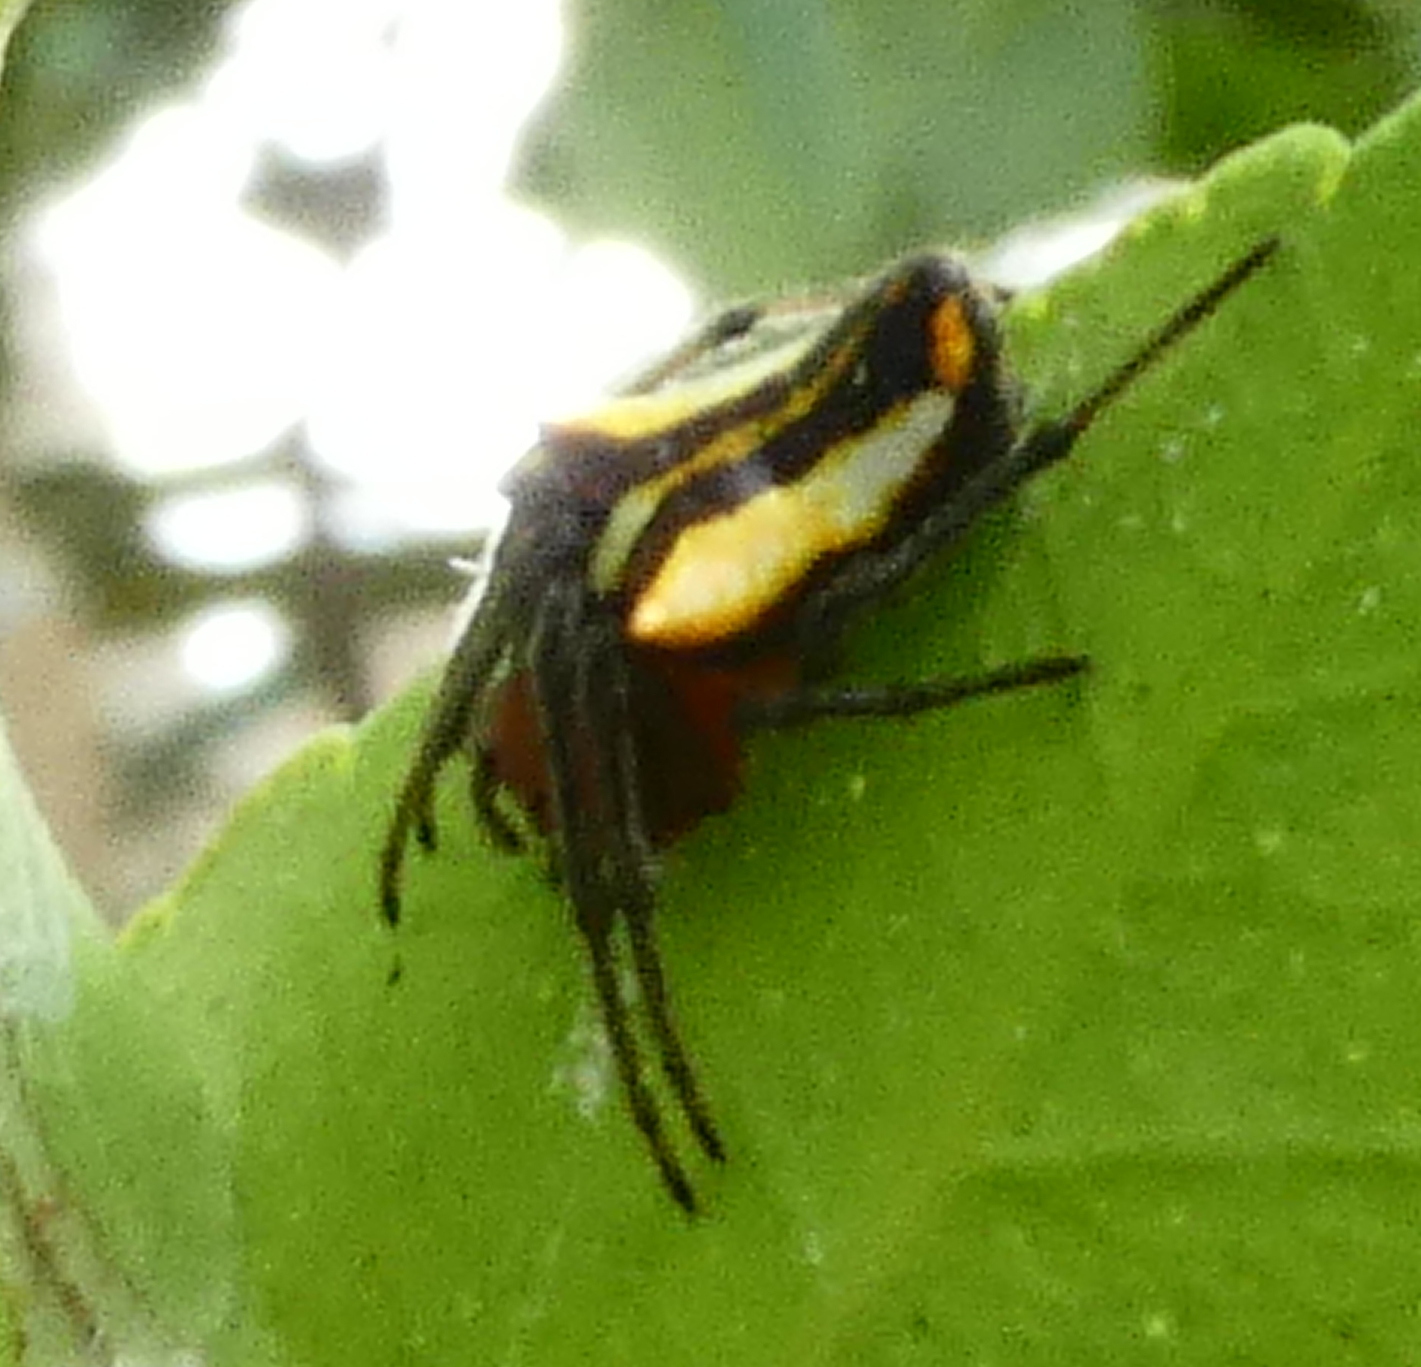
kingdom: Animalia
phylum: Arthropoda
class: Arachnida
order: Araneae
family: Araneidae
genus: Alpaida
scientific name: Alpaida bicornuta
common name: Orb weavers
